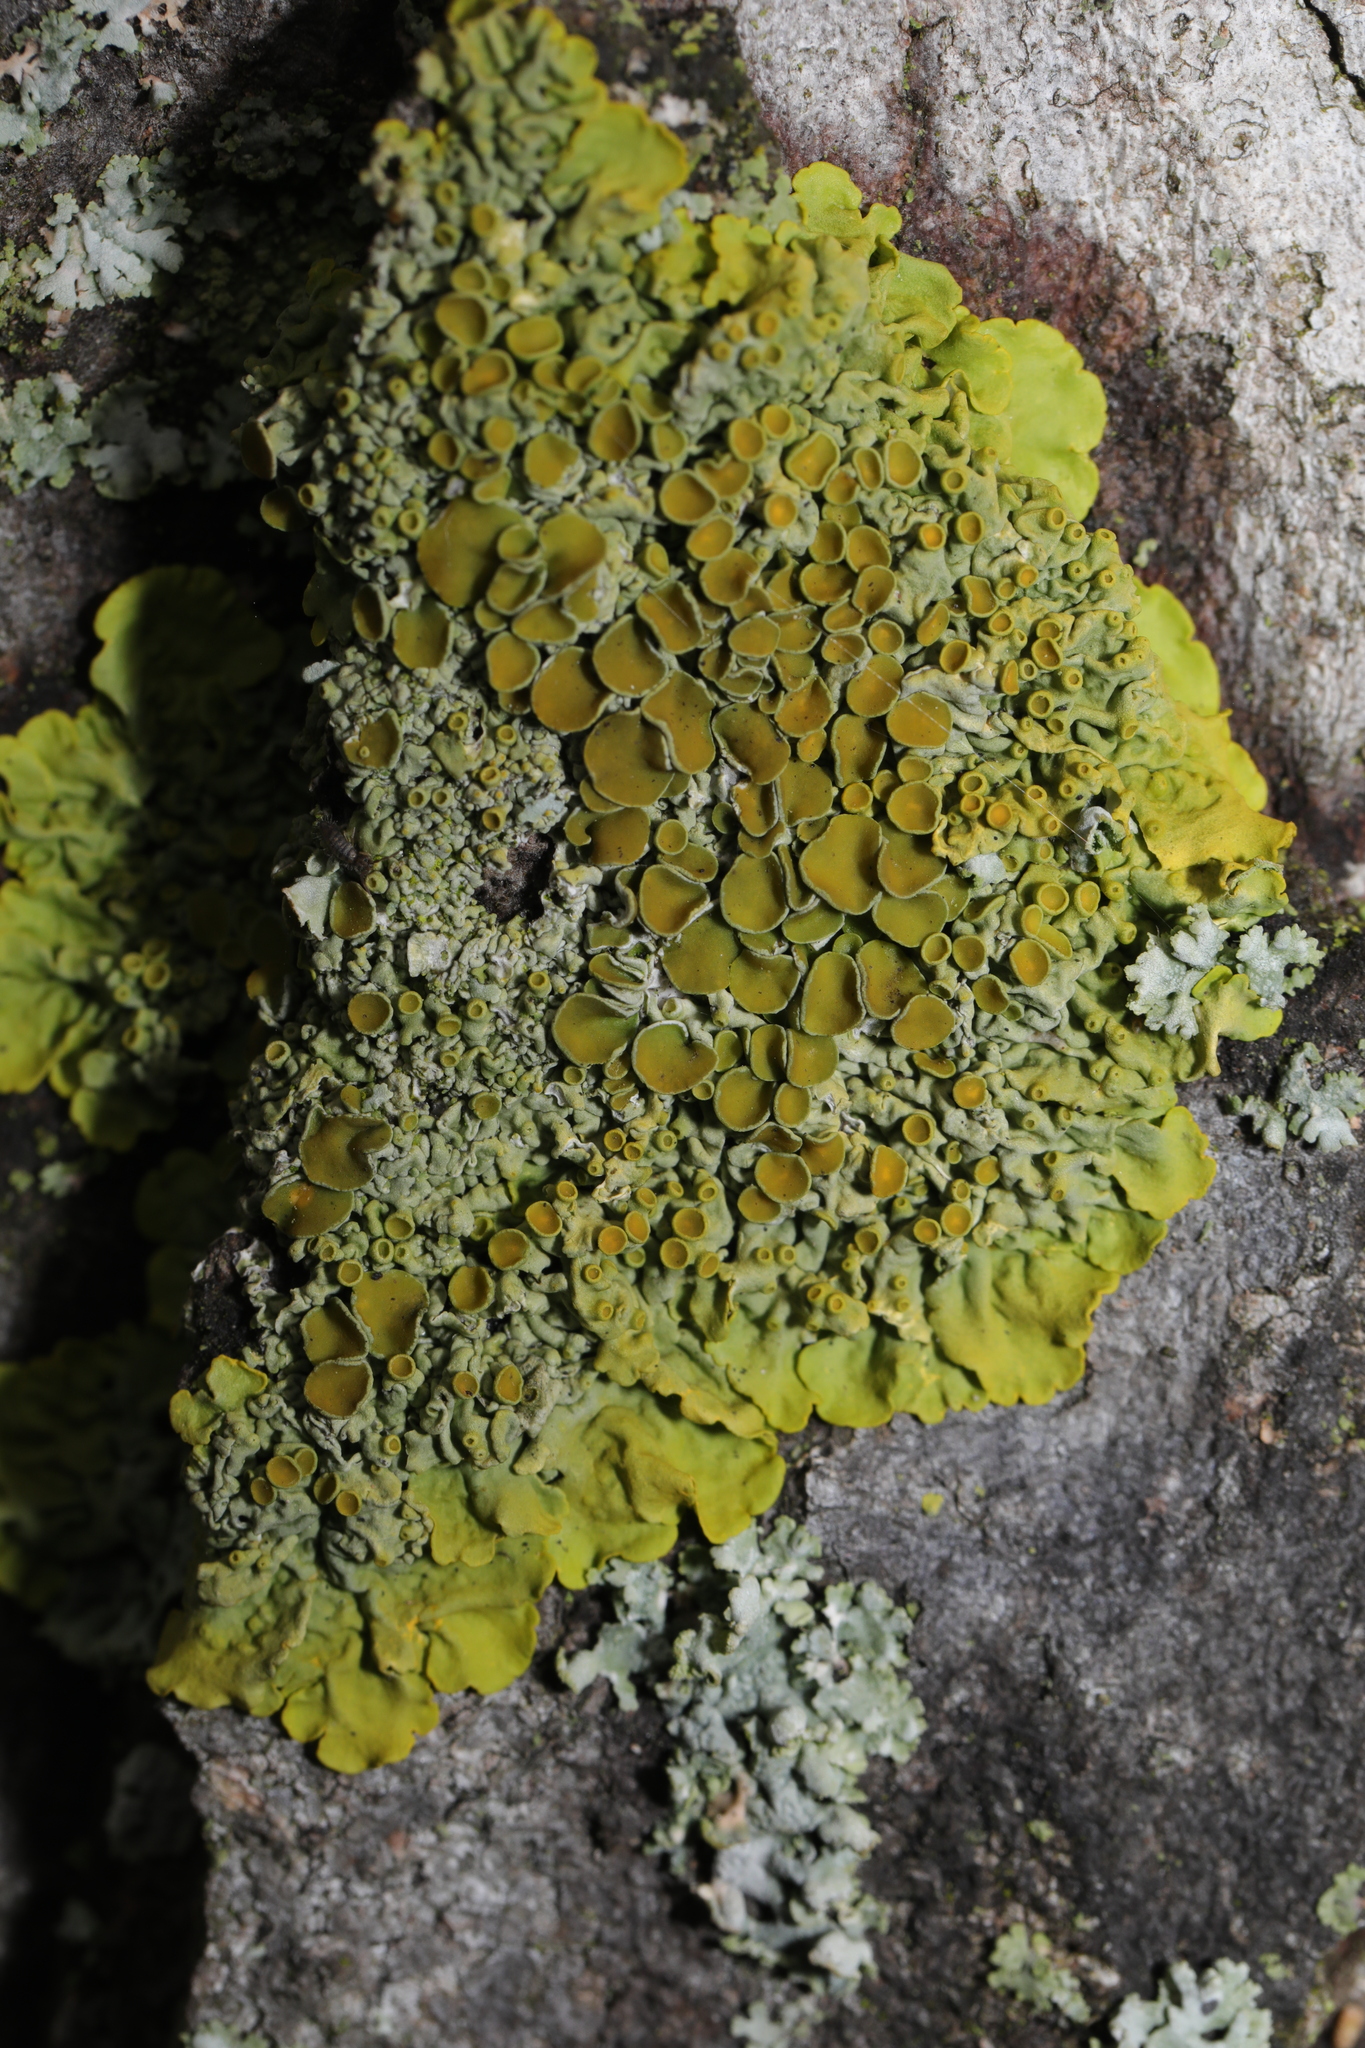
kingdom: Fungi
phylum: Ascomycota
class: Lecanoromycetes
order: Teloschistales
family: Teloschistaceae
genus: Xanthoria
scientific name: Xanthoria parietina
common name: Common orange lichen
